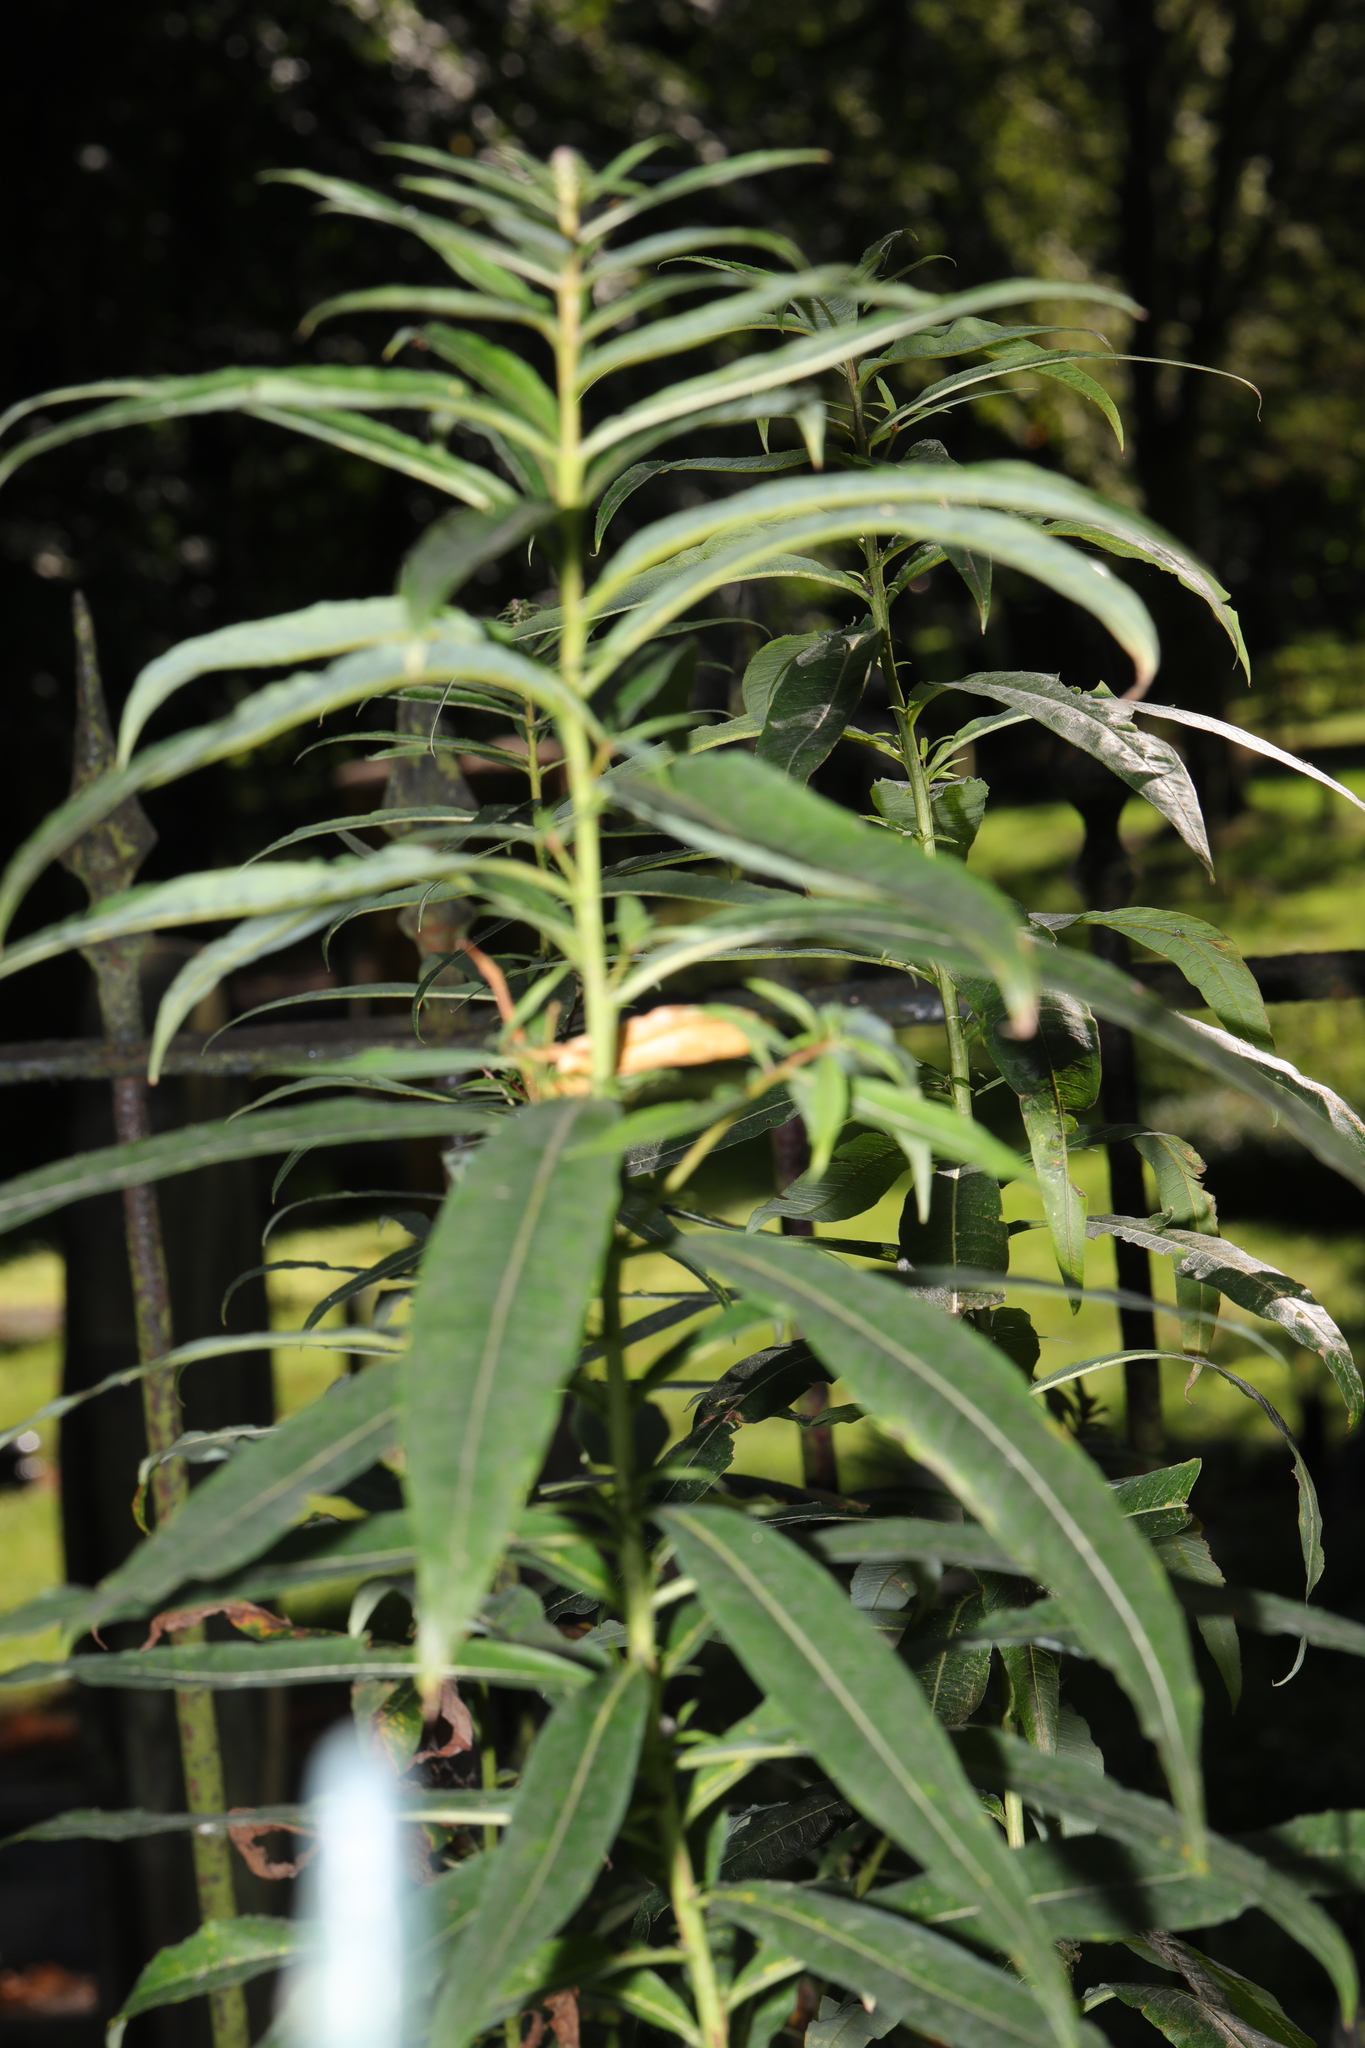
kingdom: Plantae
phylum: Tracheophyta
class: Magnoliopsida
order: Myrtales
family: Onagraceae
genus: Chamaenerion
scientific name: Chamaenerion angustifolium
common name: Fireweed
